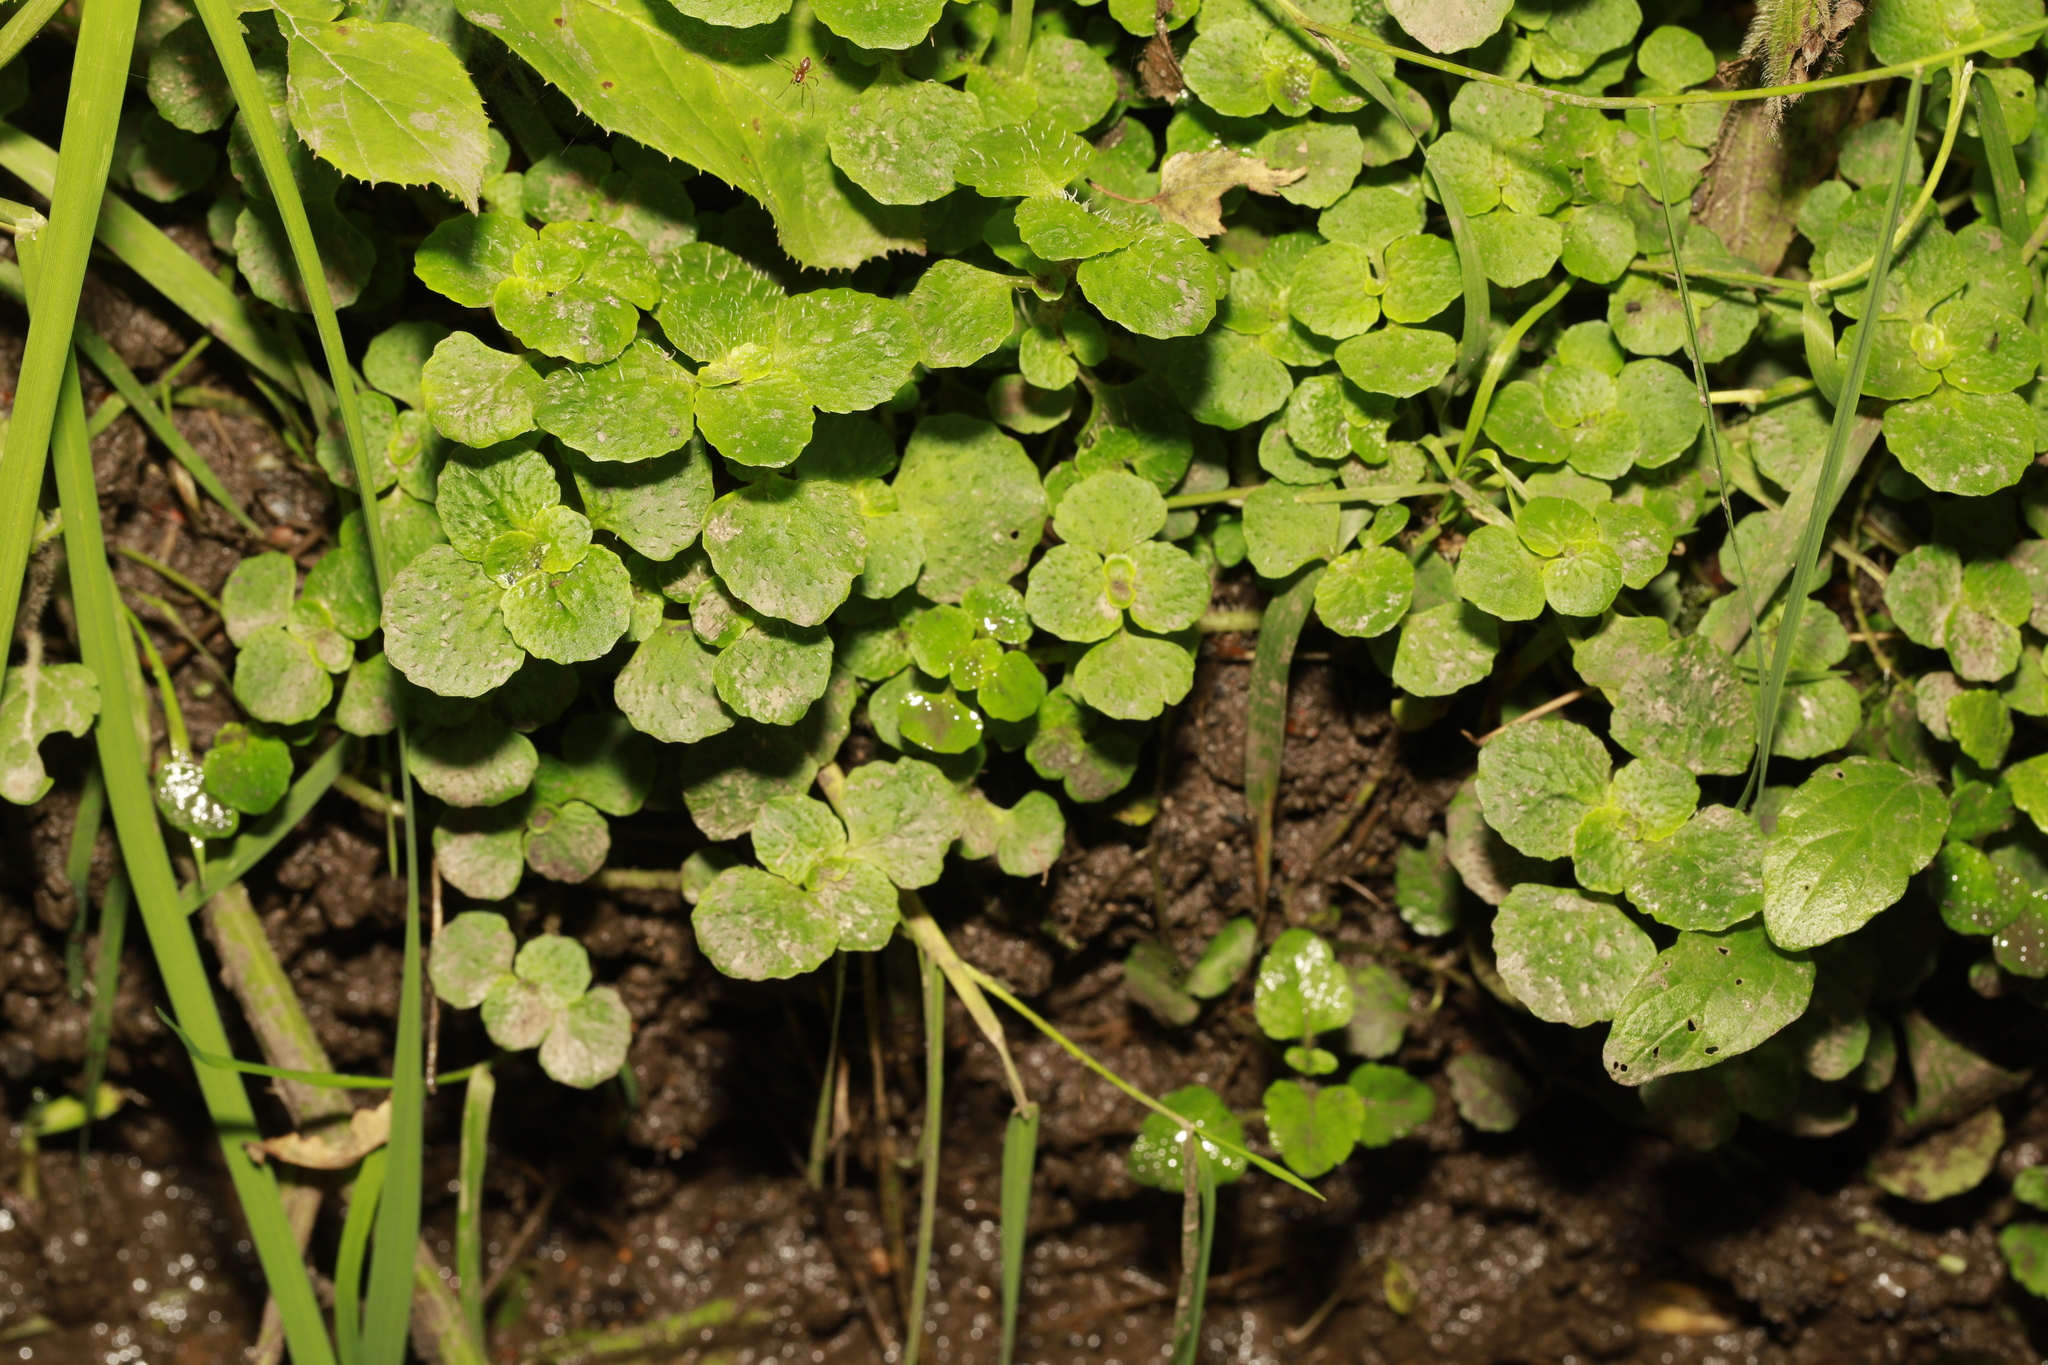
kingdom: Plantae
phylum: Tracheophyta
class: Magnoliopsida
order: Saxifragales
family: Saxifragaceae
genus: Chrysosplenium
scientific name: Chrysosplenium oppositifolium
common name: Opposite-leaved golden-saxifrage
